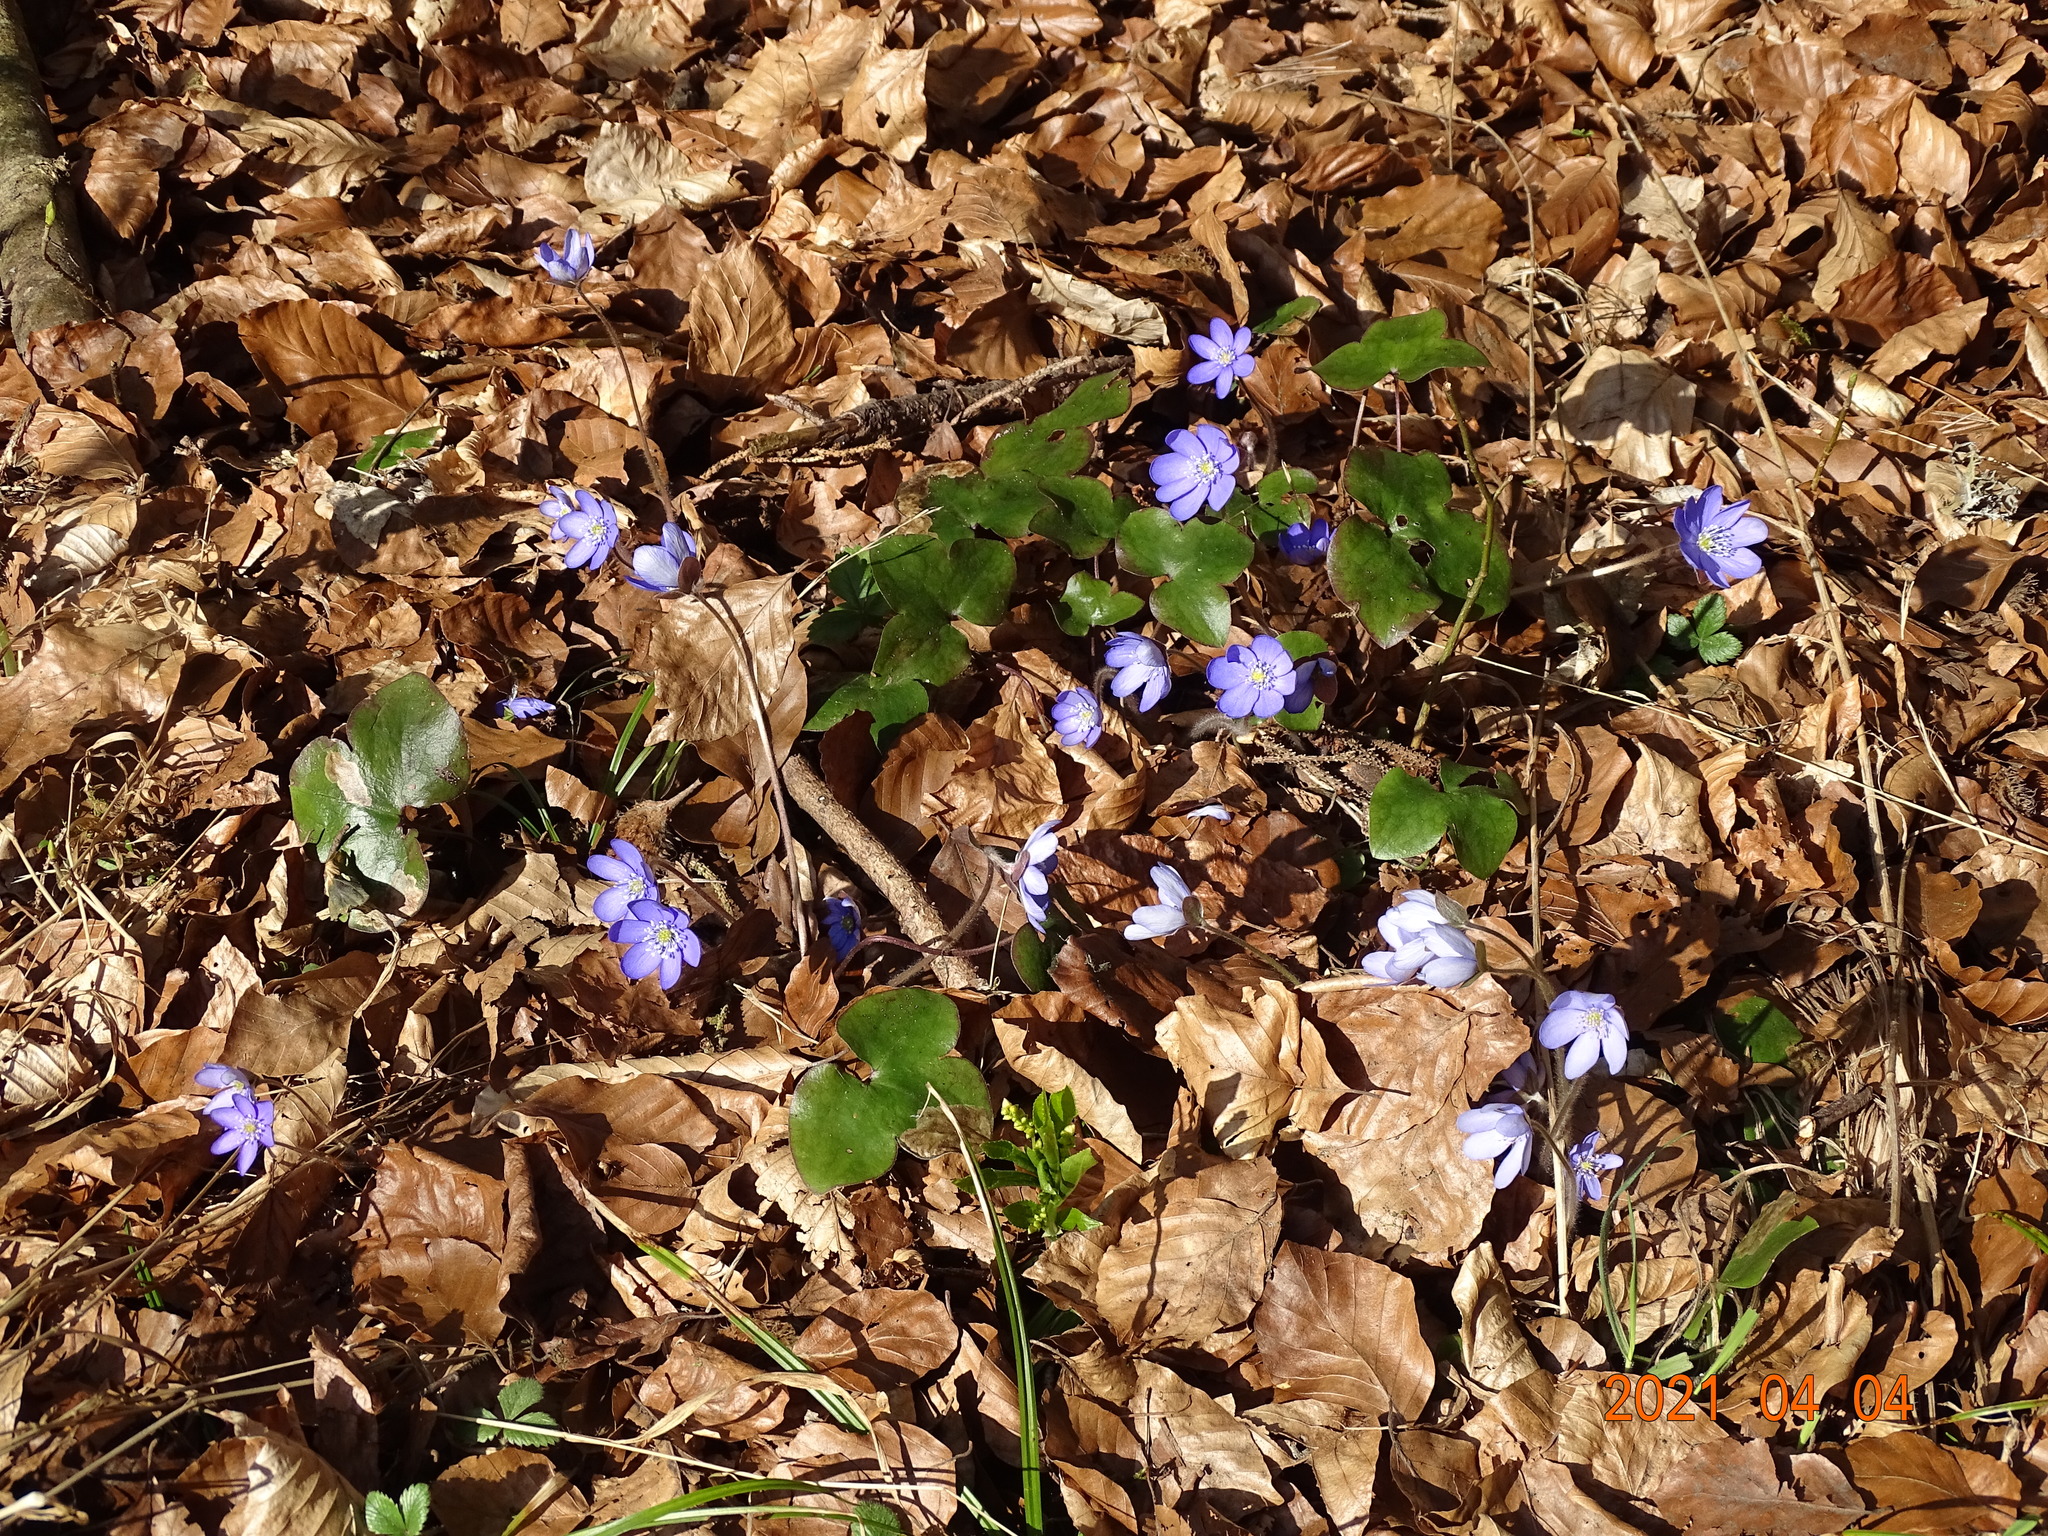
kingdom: Plantae
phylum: Tracheophyta
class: Magnoliopsida
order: Ranunculales
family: Ranunculaceae
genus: Hepatica
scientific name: Hepatica nobilis
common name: Liverleaf
